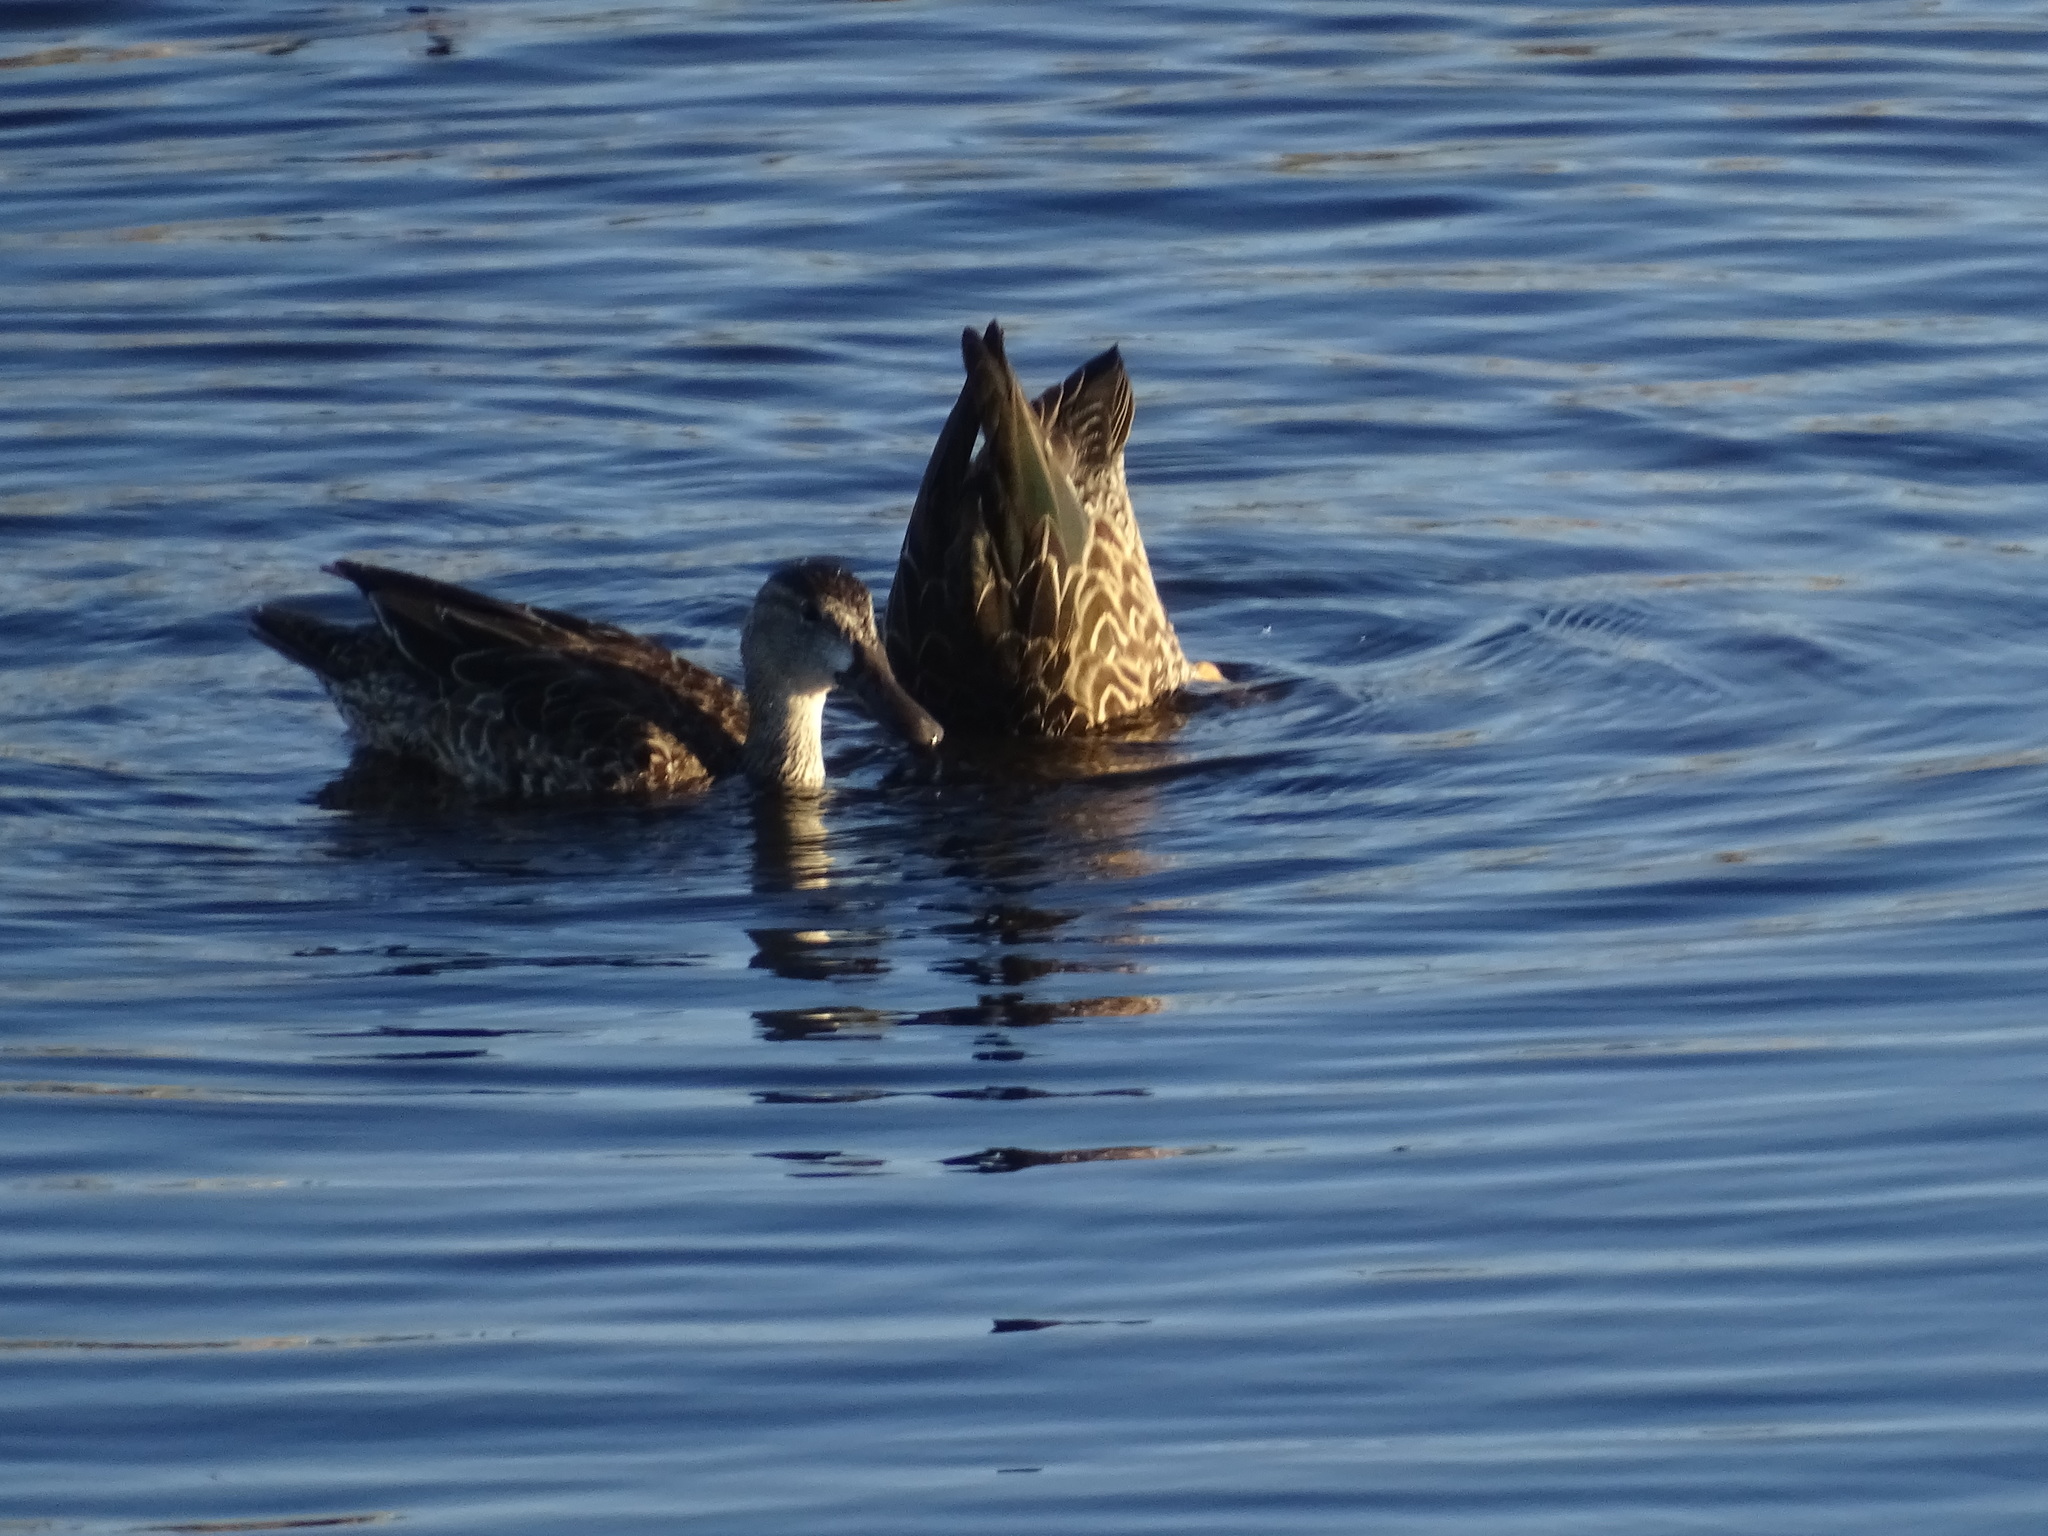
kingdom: Animalia
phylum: Chordata
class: Aves
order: Anseriformes
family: Anatidae
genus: Spatula
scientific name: Spatula discors
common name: Blue-winged teal
